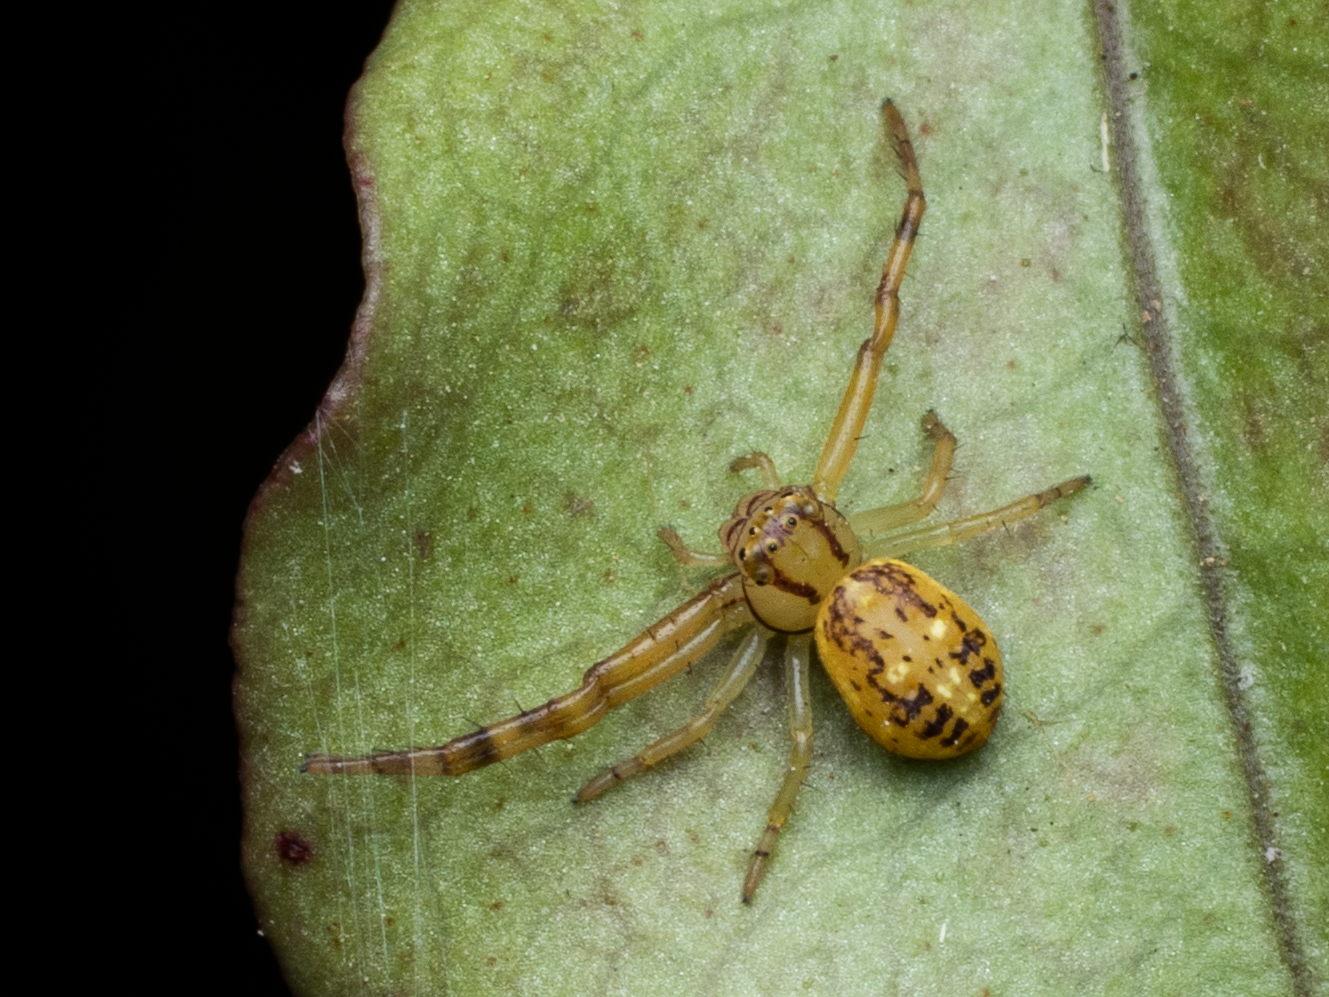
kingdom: Animalia
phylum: Arthropoda
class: Arachnida
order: Araneae
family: Thomisidae
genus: Diaea
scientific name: Diaea ambara
